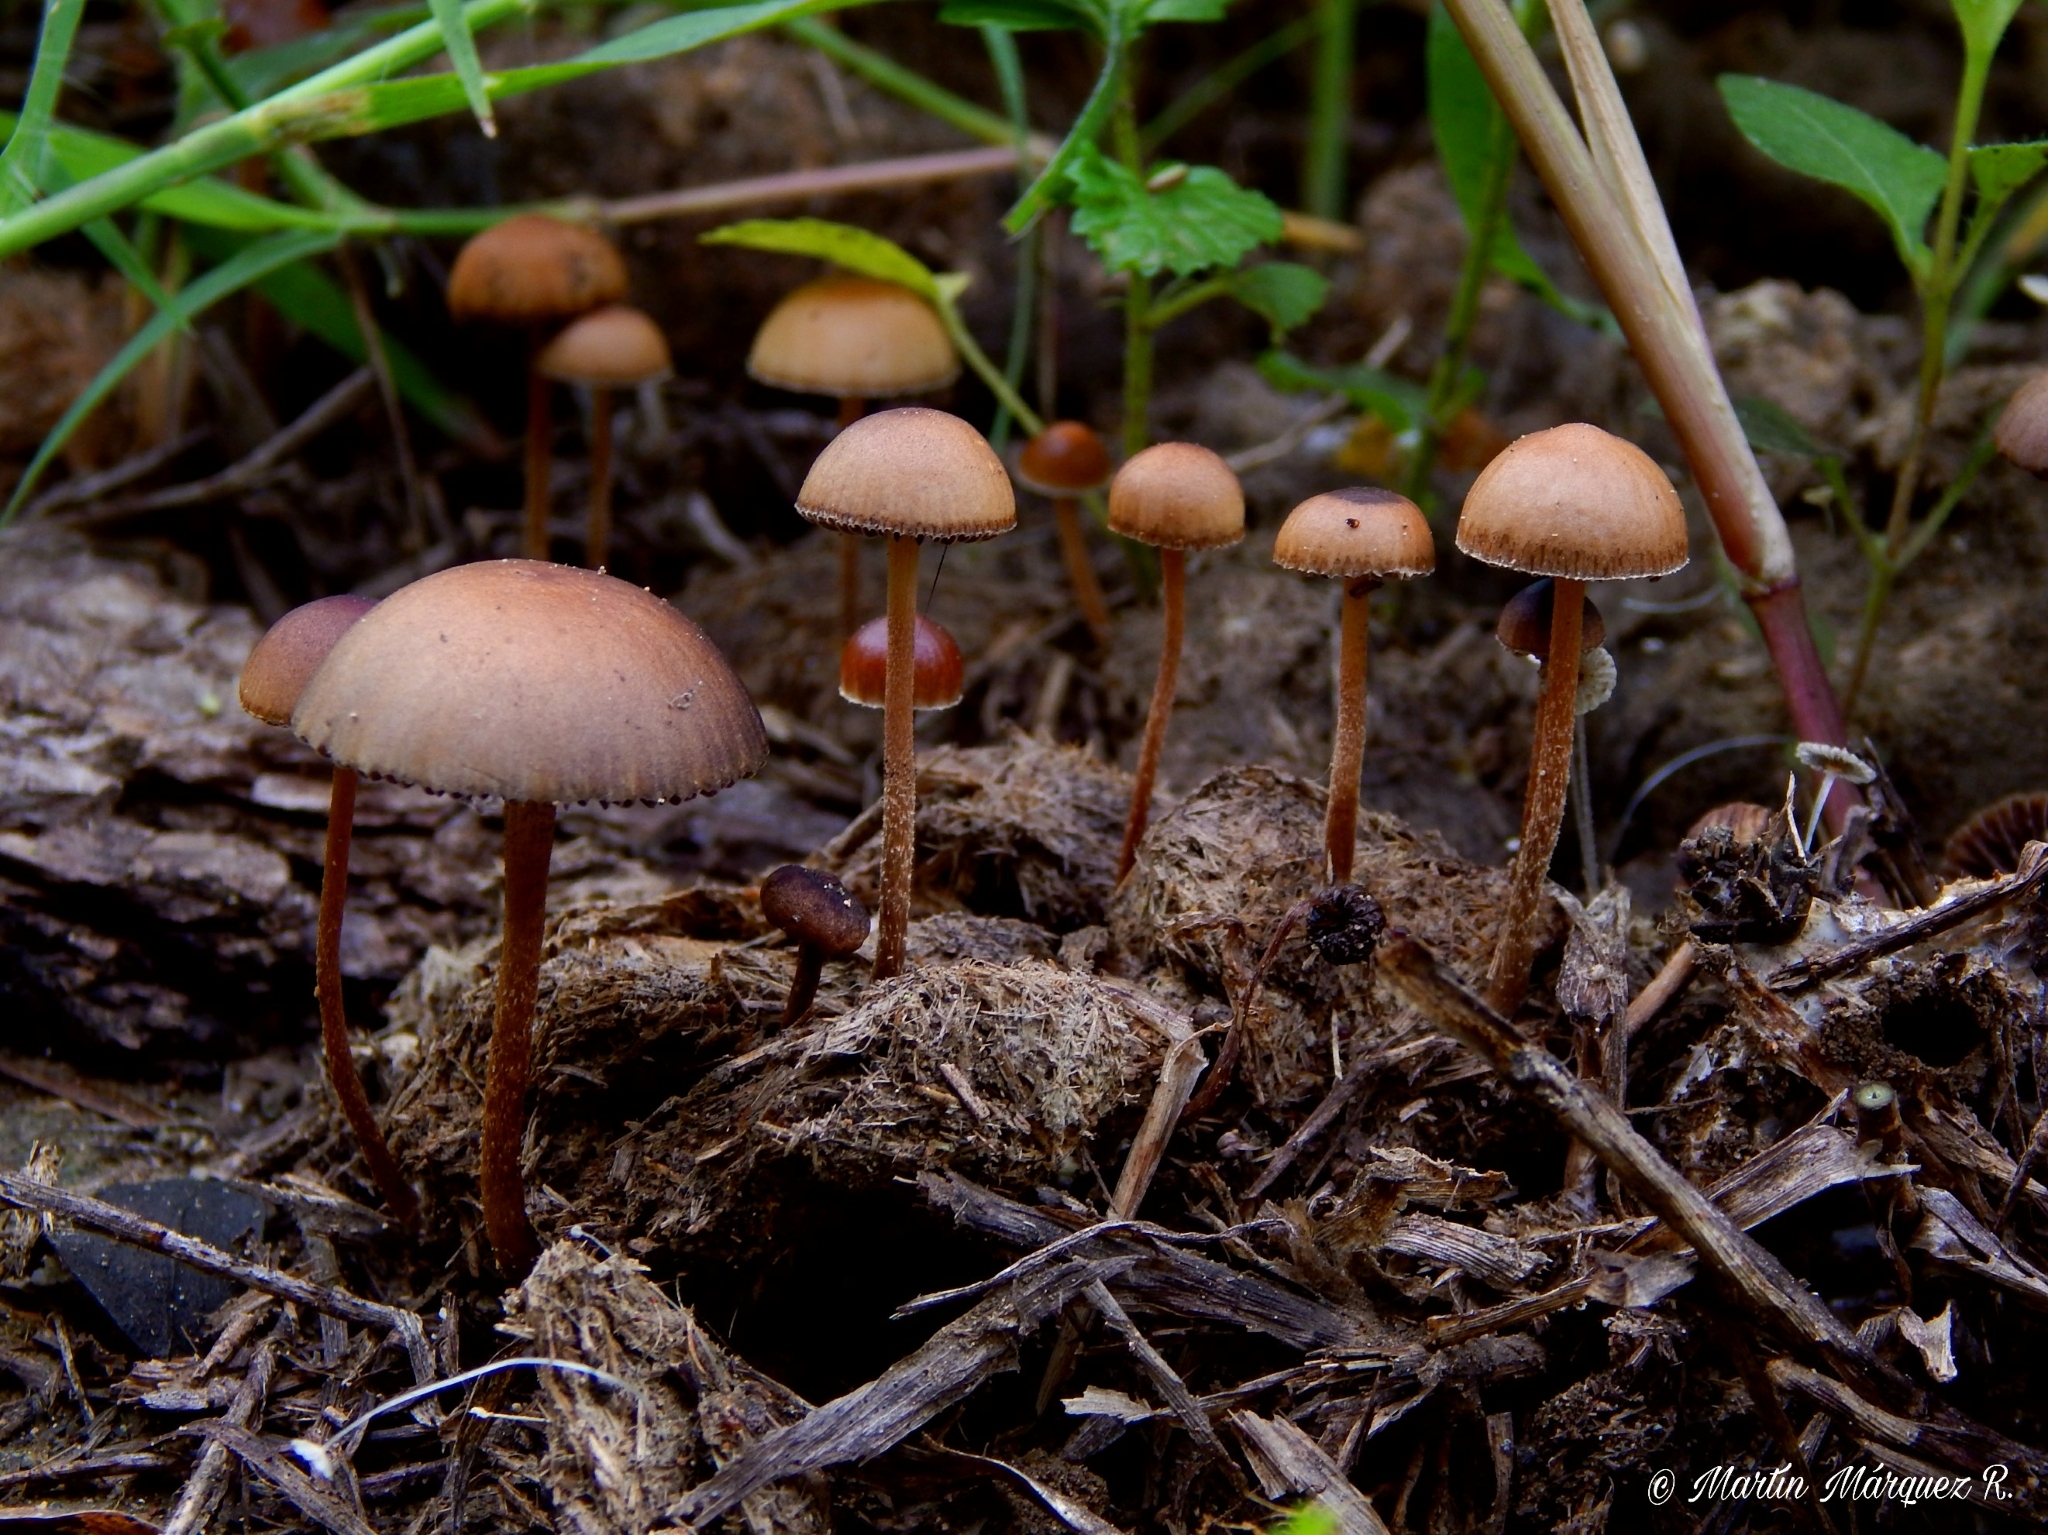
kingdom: Fungi
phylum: Basidiomycota
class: Agaricomycetes
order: Agaricales
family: Strophariaceae
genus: Deconica
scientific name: Deconica coprophila
